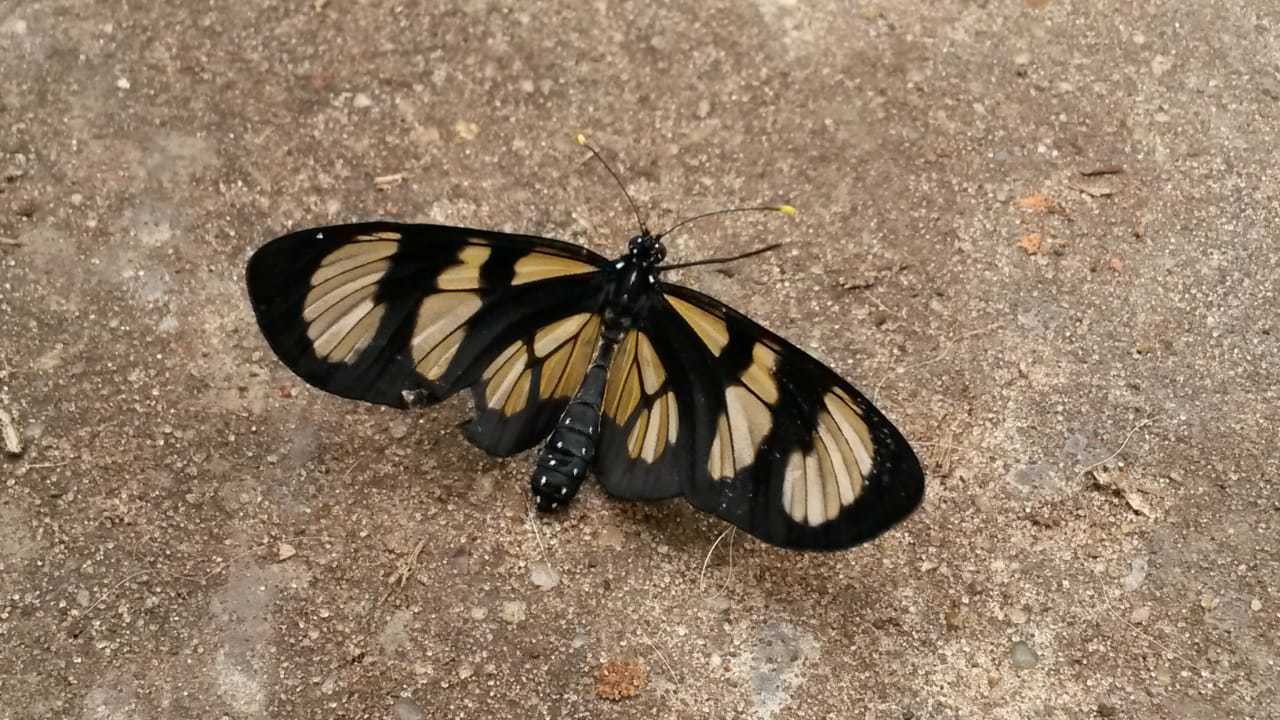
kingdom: Animalia
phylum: Arthropoda
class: Insecta
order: Lepidoptera
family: Nymphalidae
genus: Methona
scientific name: Methona themisto
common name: Themisto amberwing
